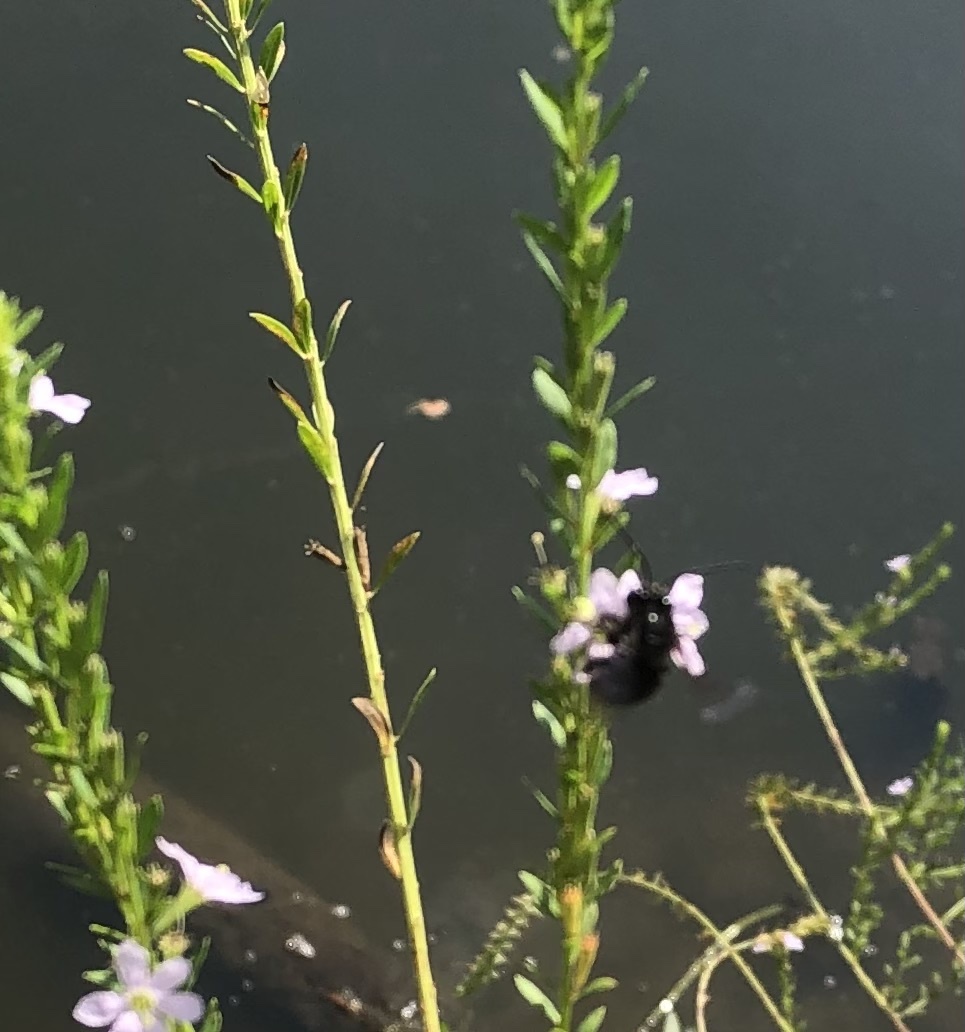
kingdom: Animalia
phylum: Arthropoda
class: Insecta
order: Hymenoptera
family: Apidae
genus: Melissodes
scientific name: Melissodes bimaculatus
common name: Two-spotted long-horned bee
